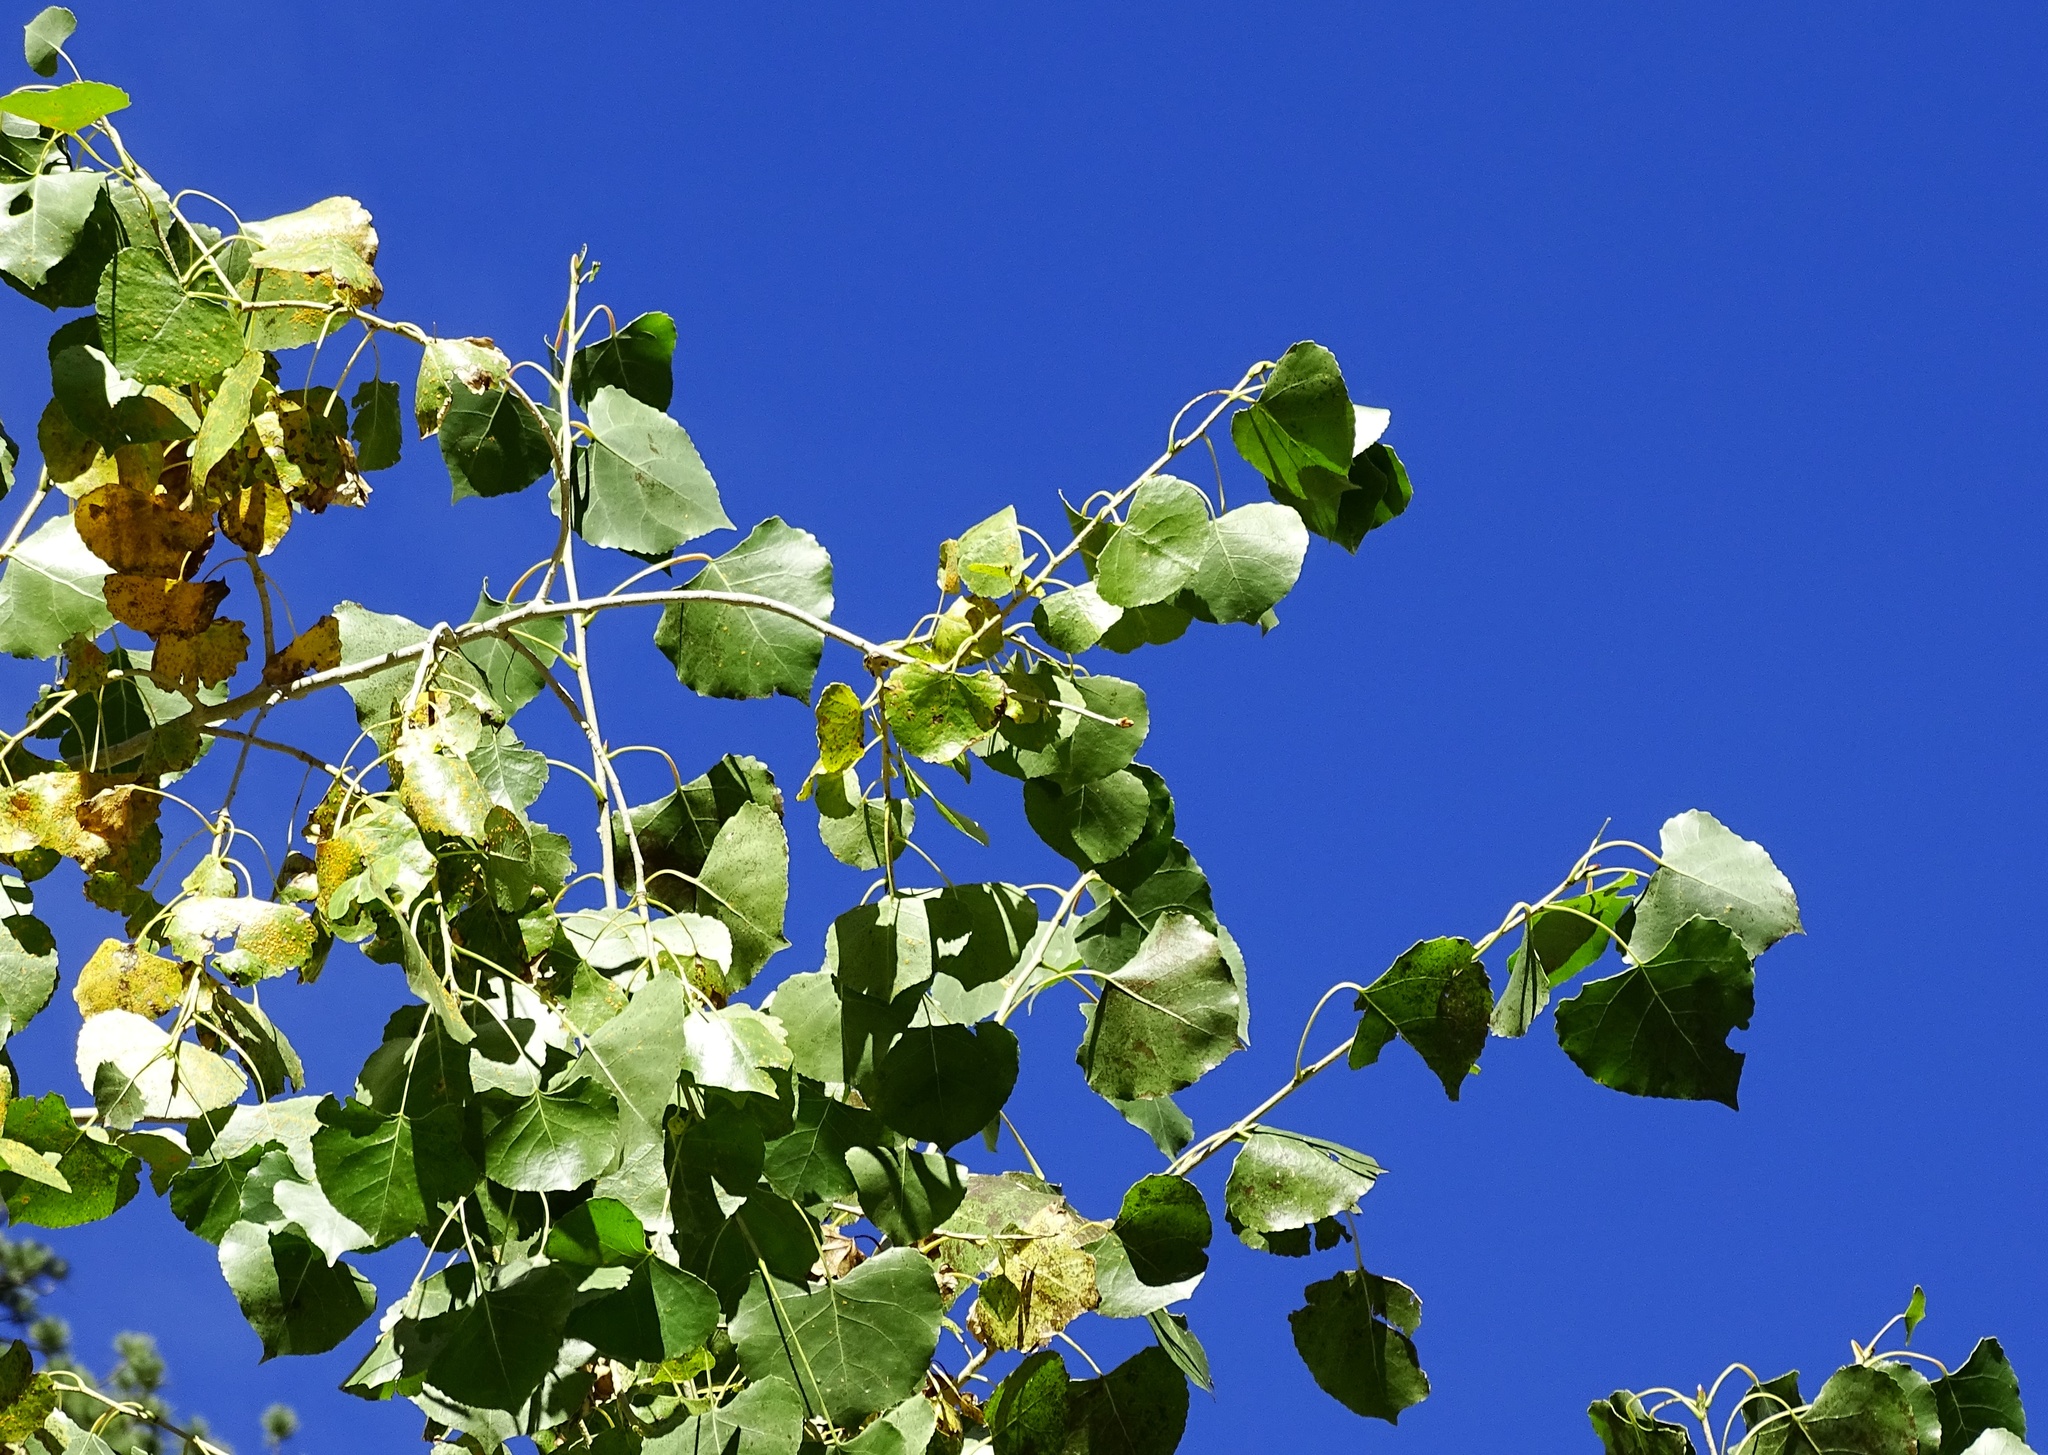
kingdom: Plantae
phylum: Tracheophyta
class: Magnoliopsida
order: Malpighiales
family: Salicaceae
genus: Populus
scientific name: Populus fremontii
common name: Fremont's cottonwood
